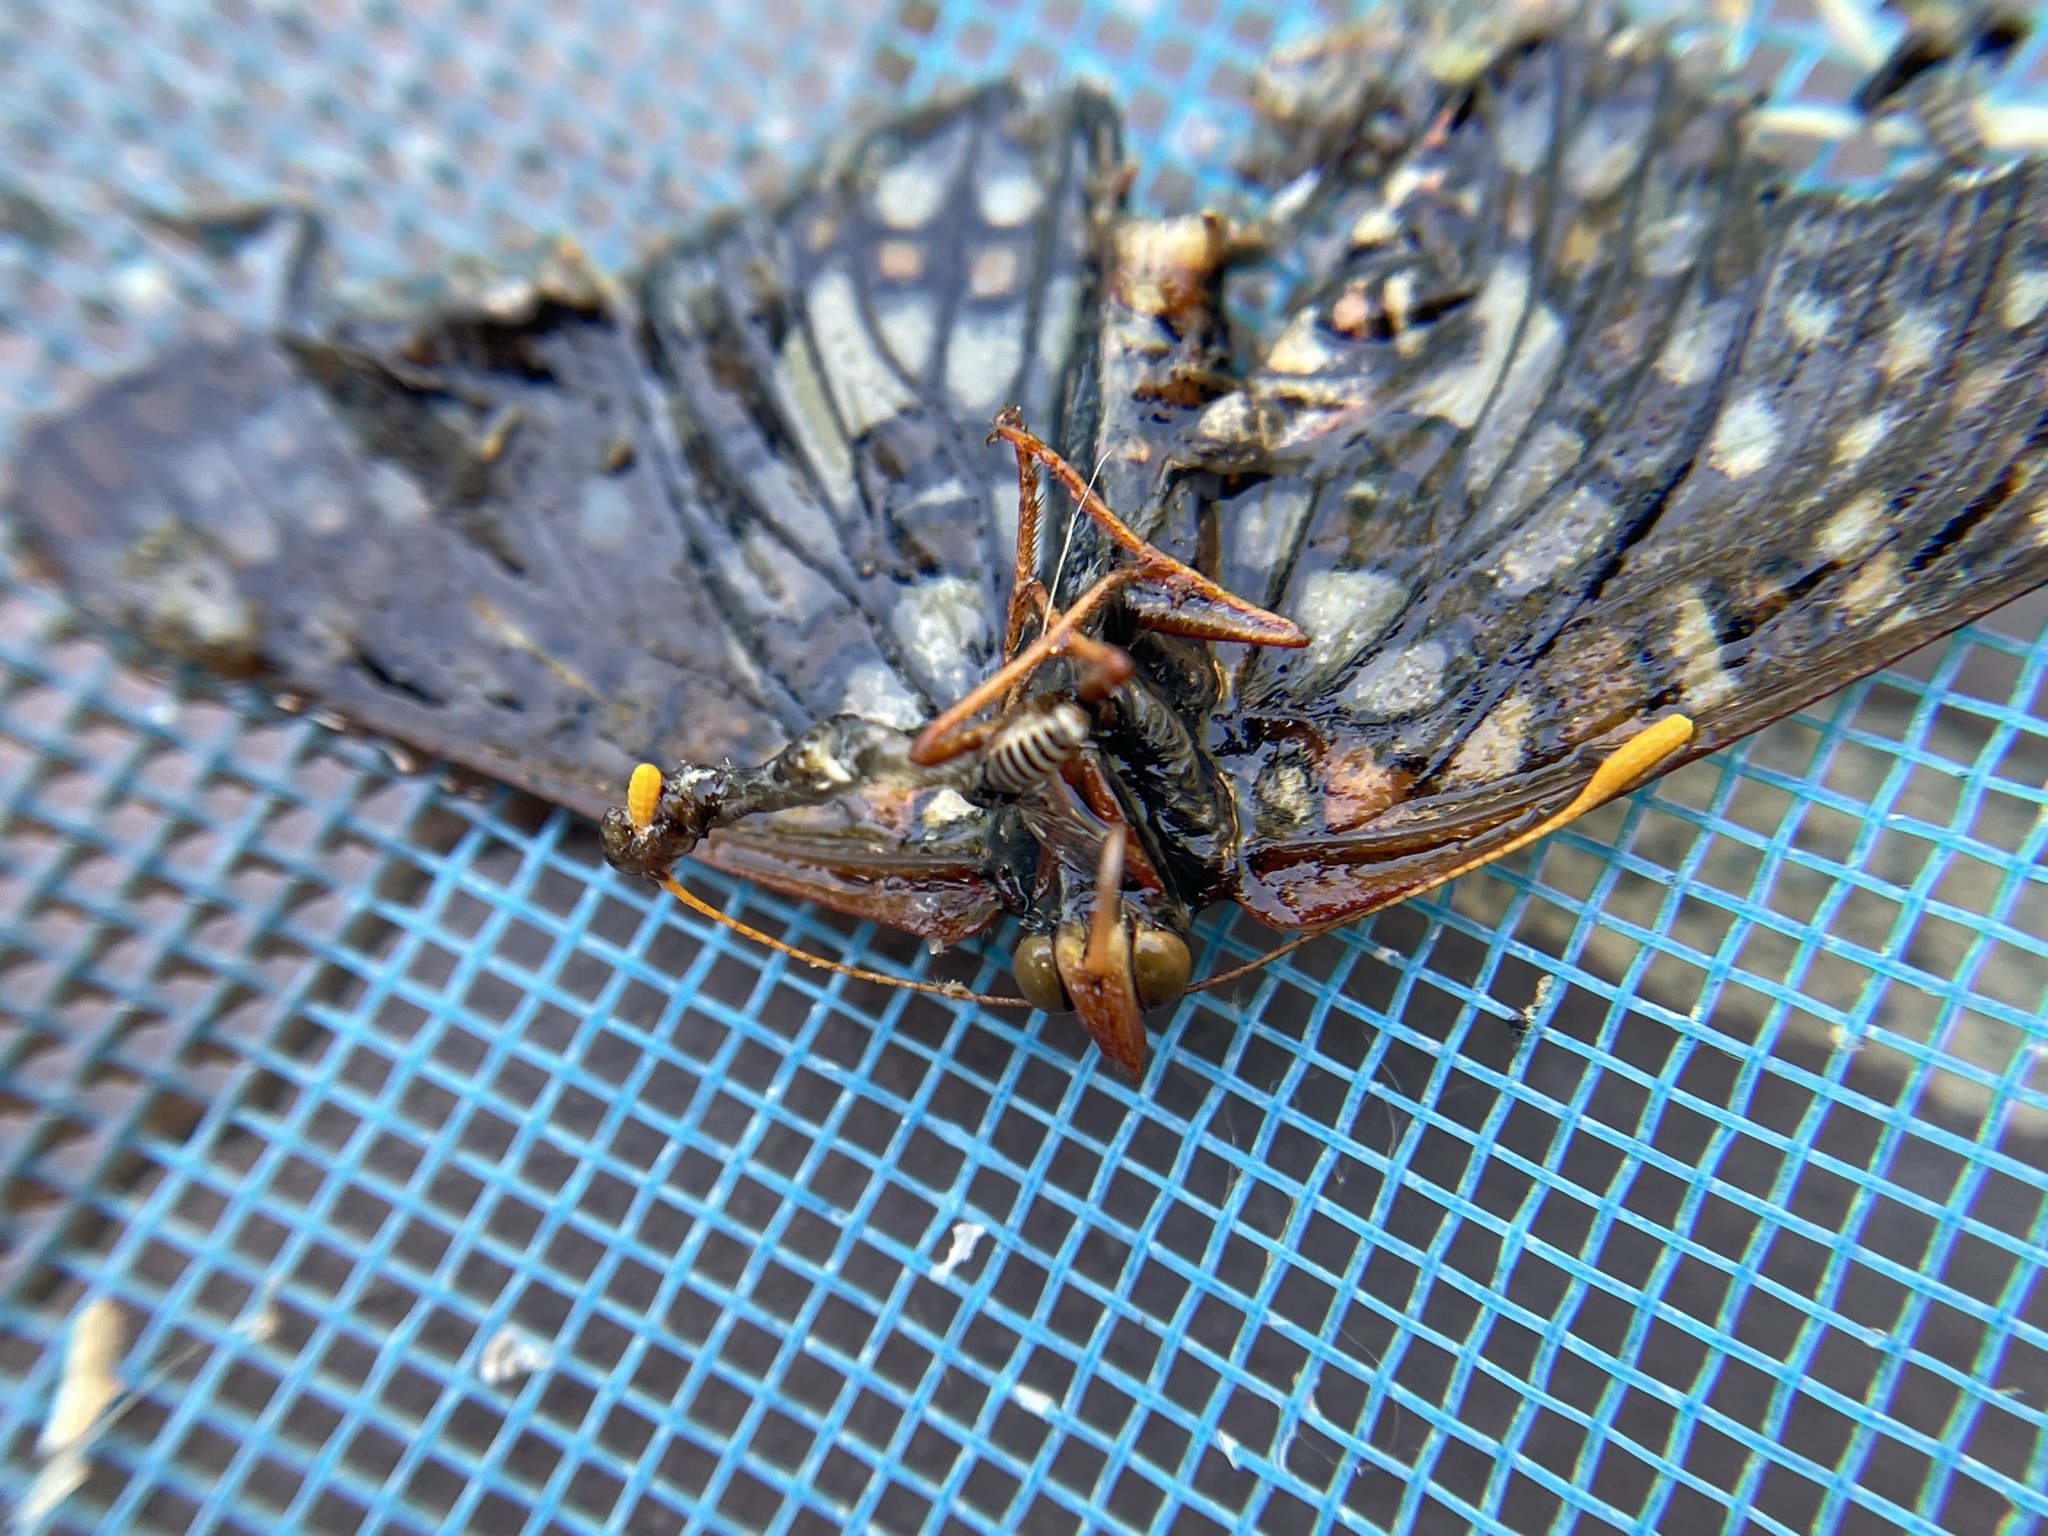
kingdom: Animalia
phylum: Arthropoda
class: Insecta
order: Lepidoptera
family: Nymphalidae
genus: Occidryas
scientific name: Occidryas chalcedona
